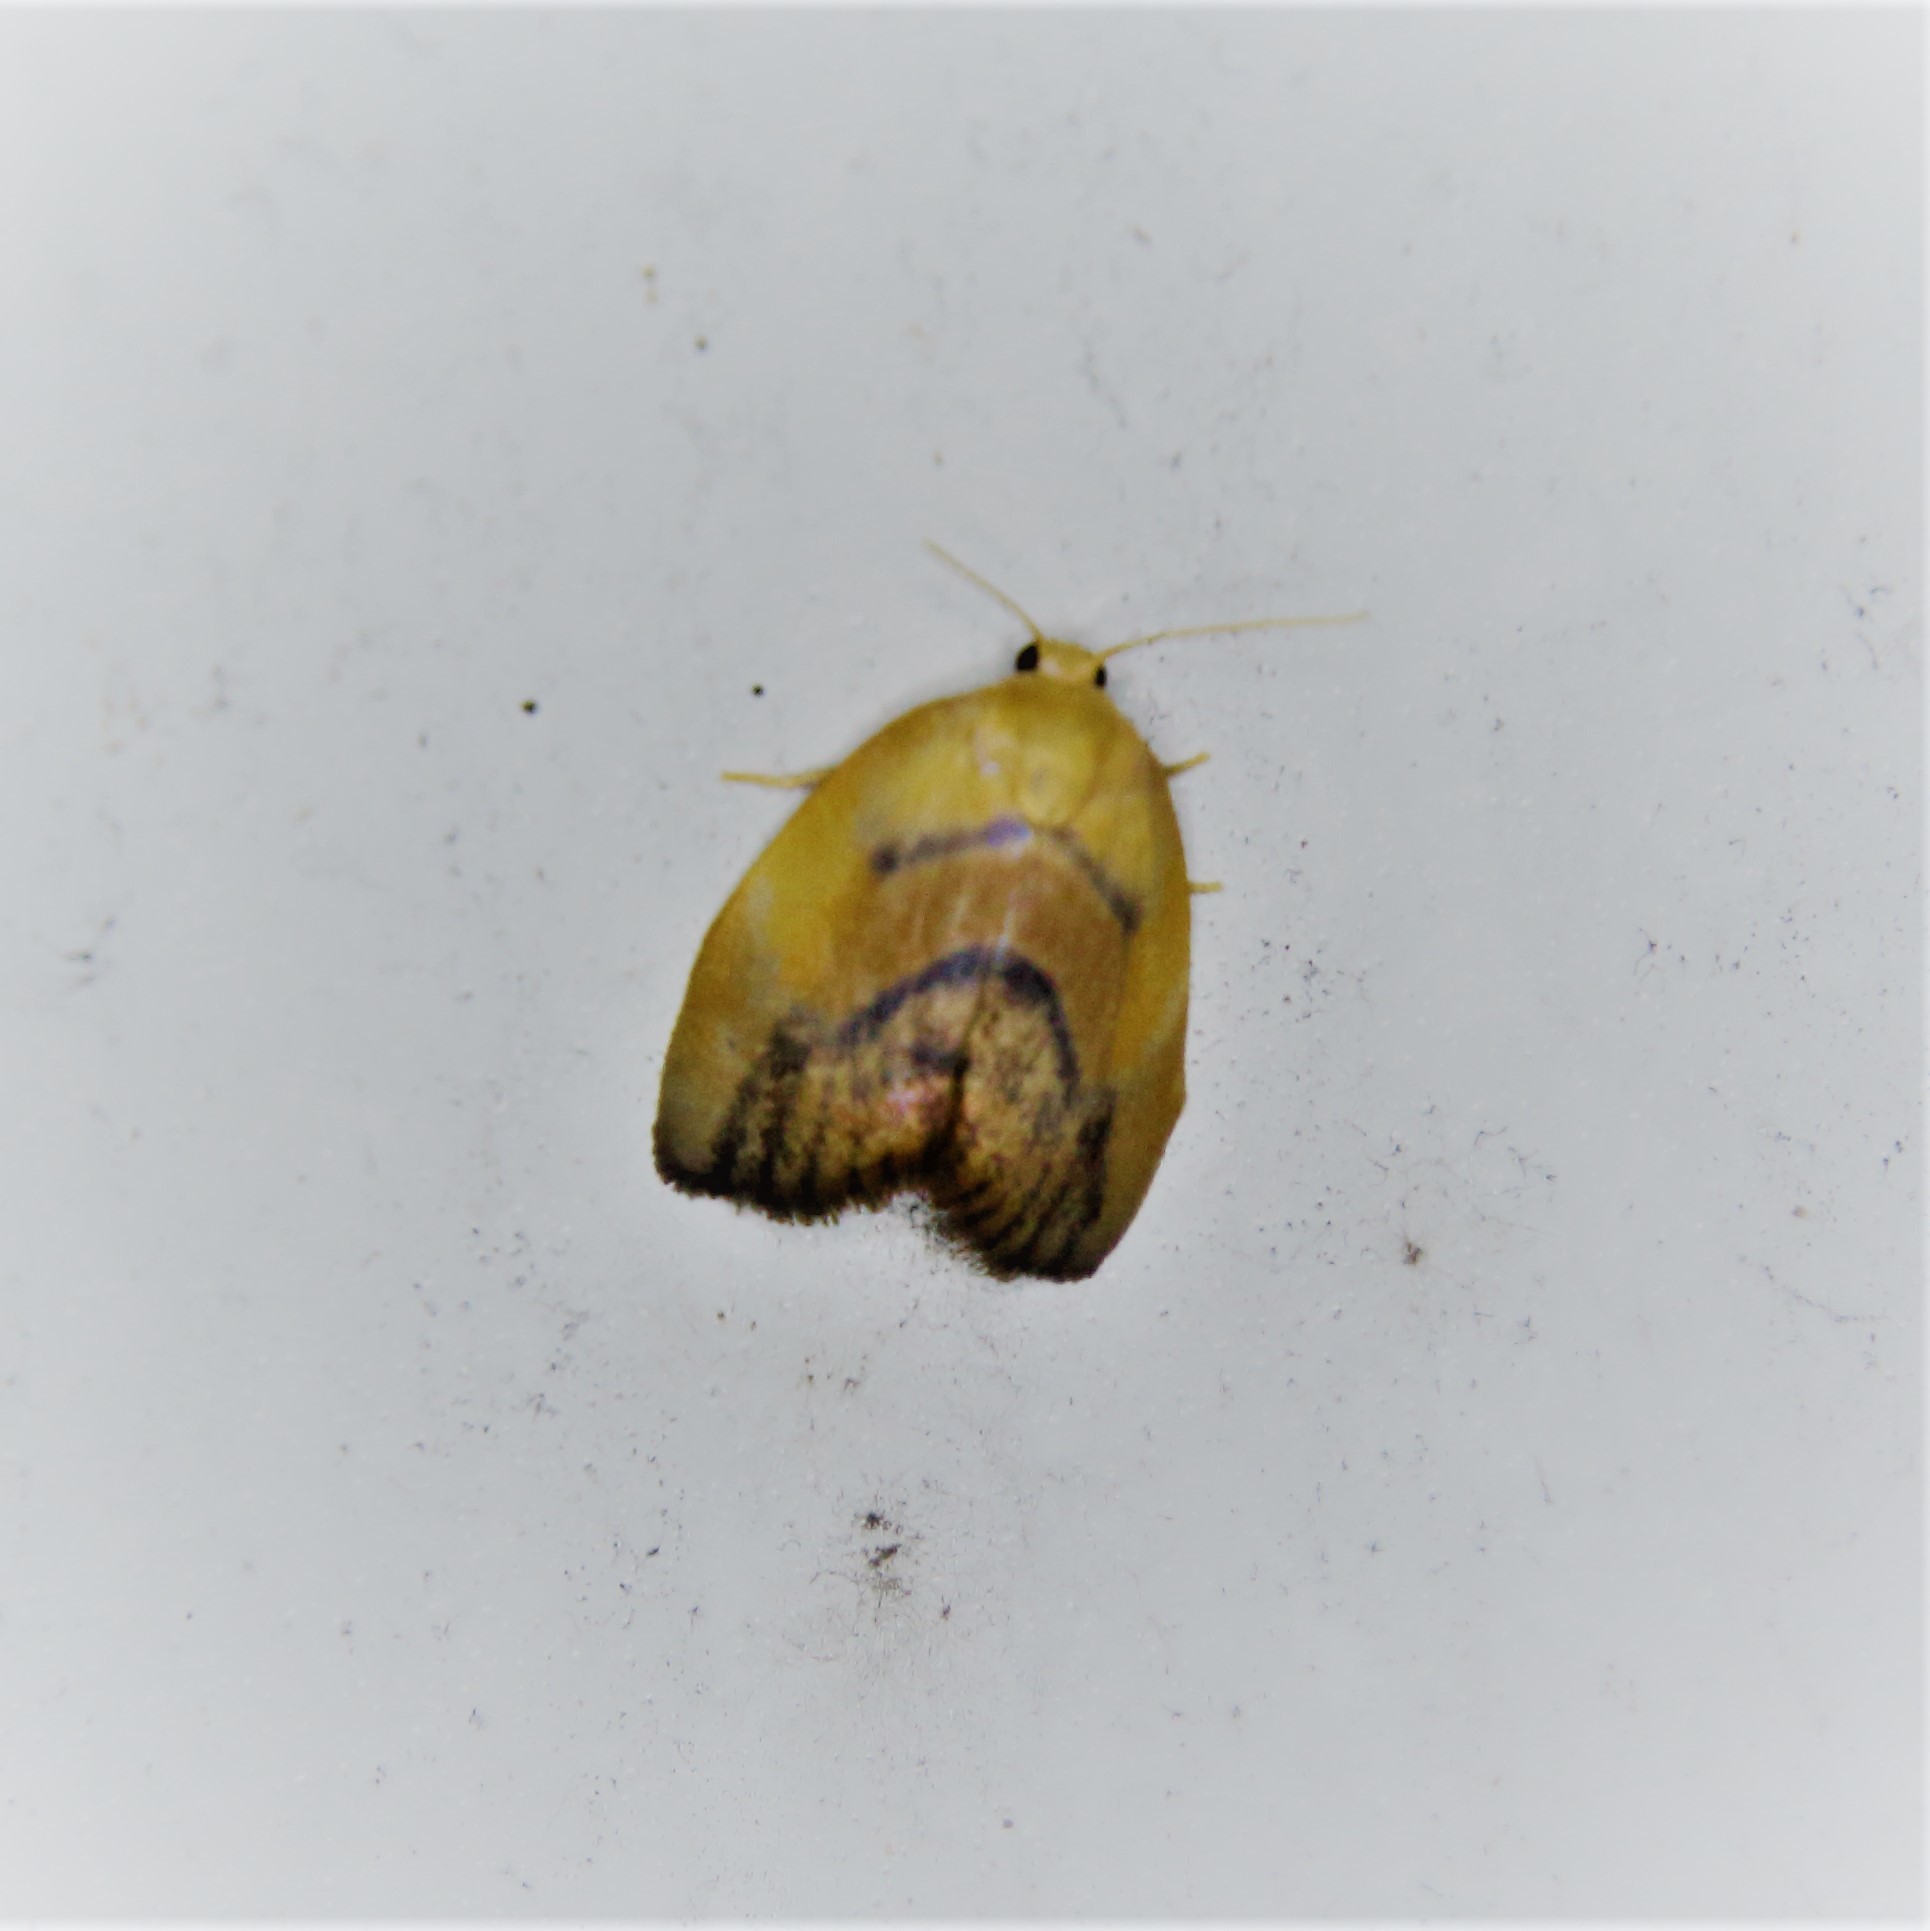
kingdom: Animalia
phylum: Arthropoda
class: Insecta
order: Lepidoptera
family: Erebidae
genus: Tropacme
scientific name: Tropacme cupreimargo
